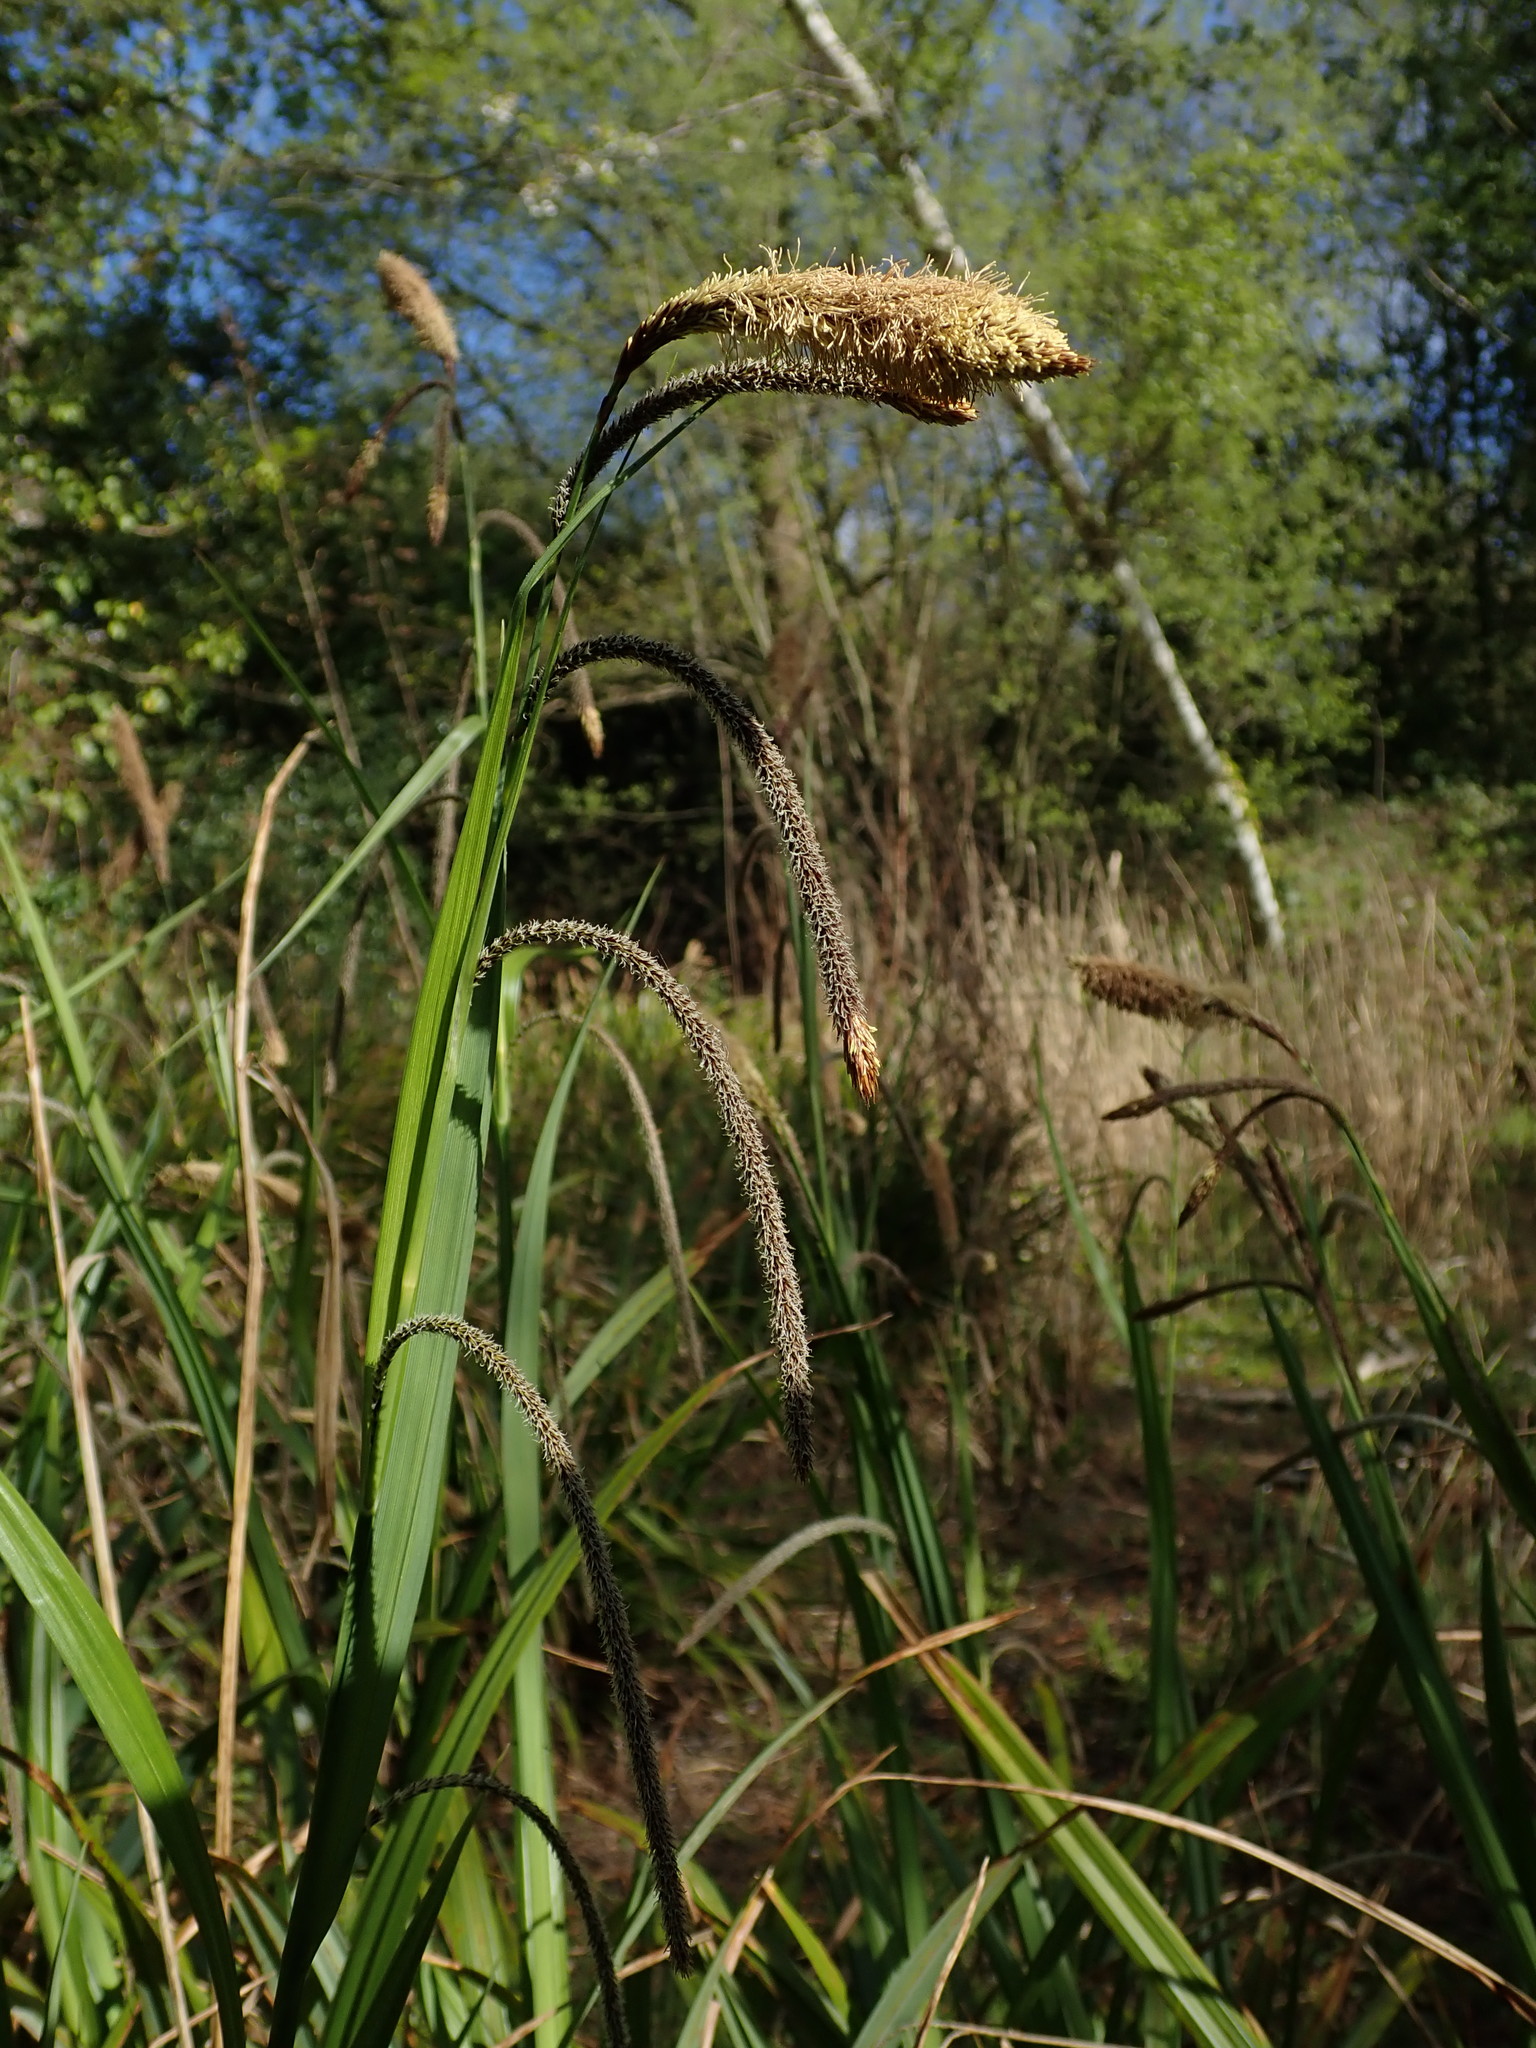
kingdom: Plantae
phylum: Tracheophyta
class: Liliopsida
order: Poales
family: Cyperaceae
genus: Carex
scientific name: Carex pendula
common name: Pendulous sedge
